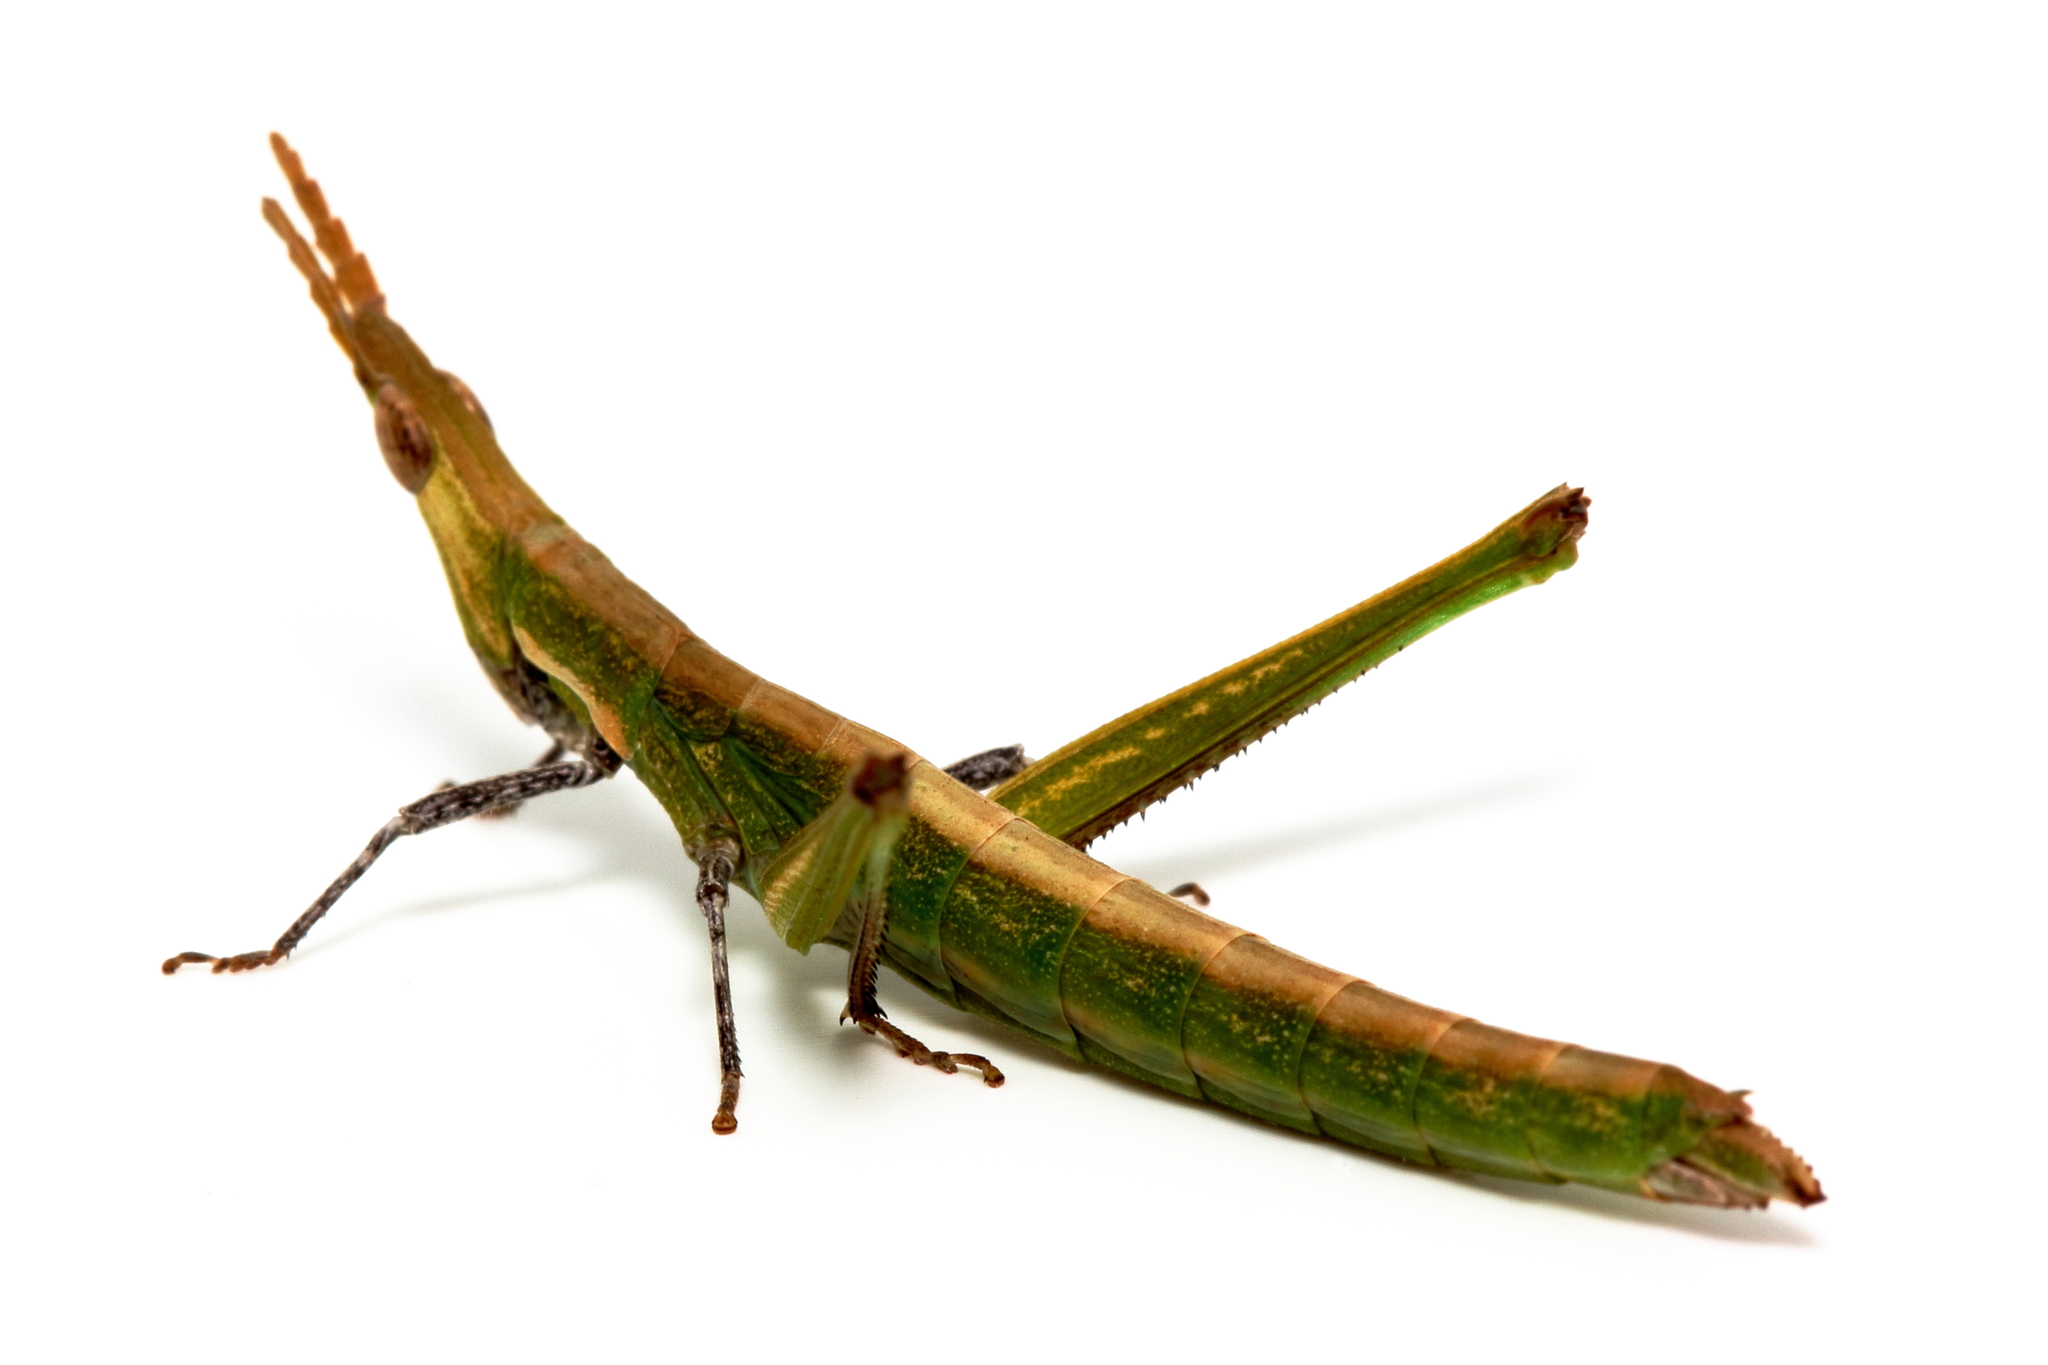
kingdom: Animalia
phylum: Arthropoda
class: Insecta
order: Orthoptera
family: Morabidae
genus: Vandiemenella
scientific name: Vandiemenella viatica
